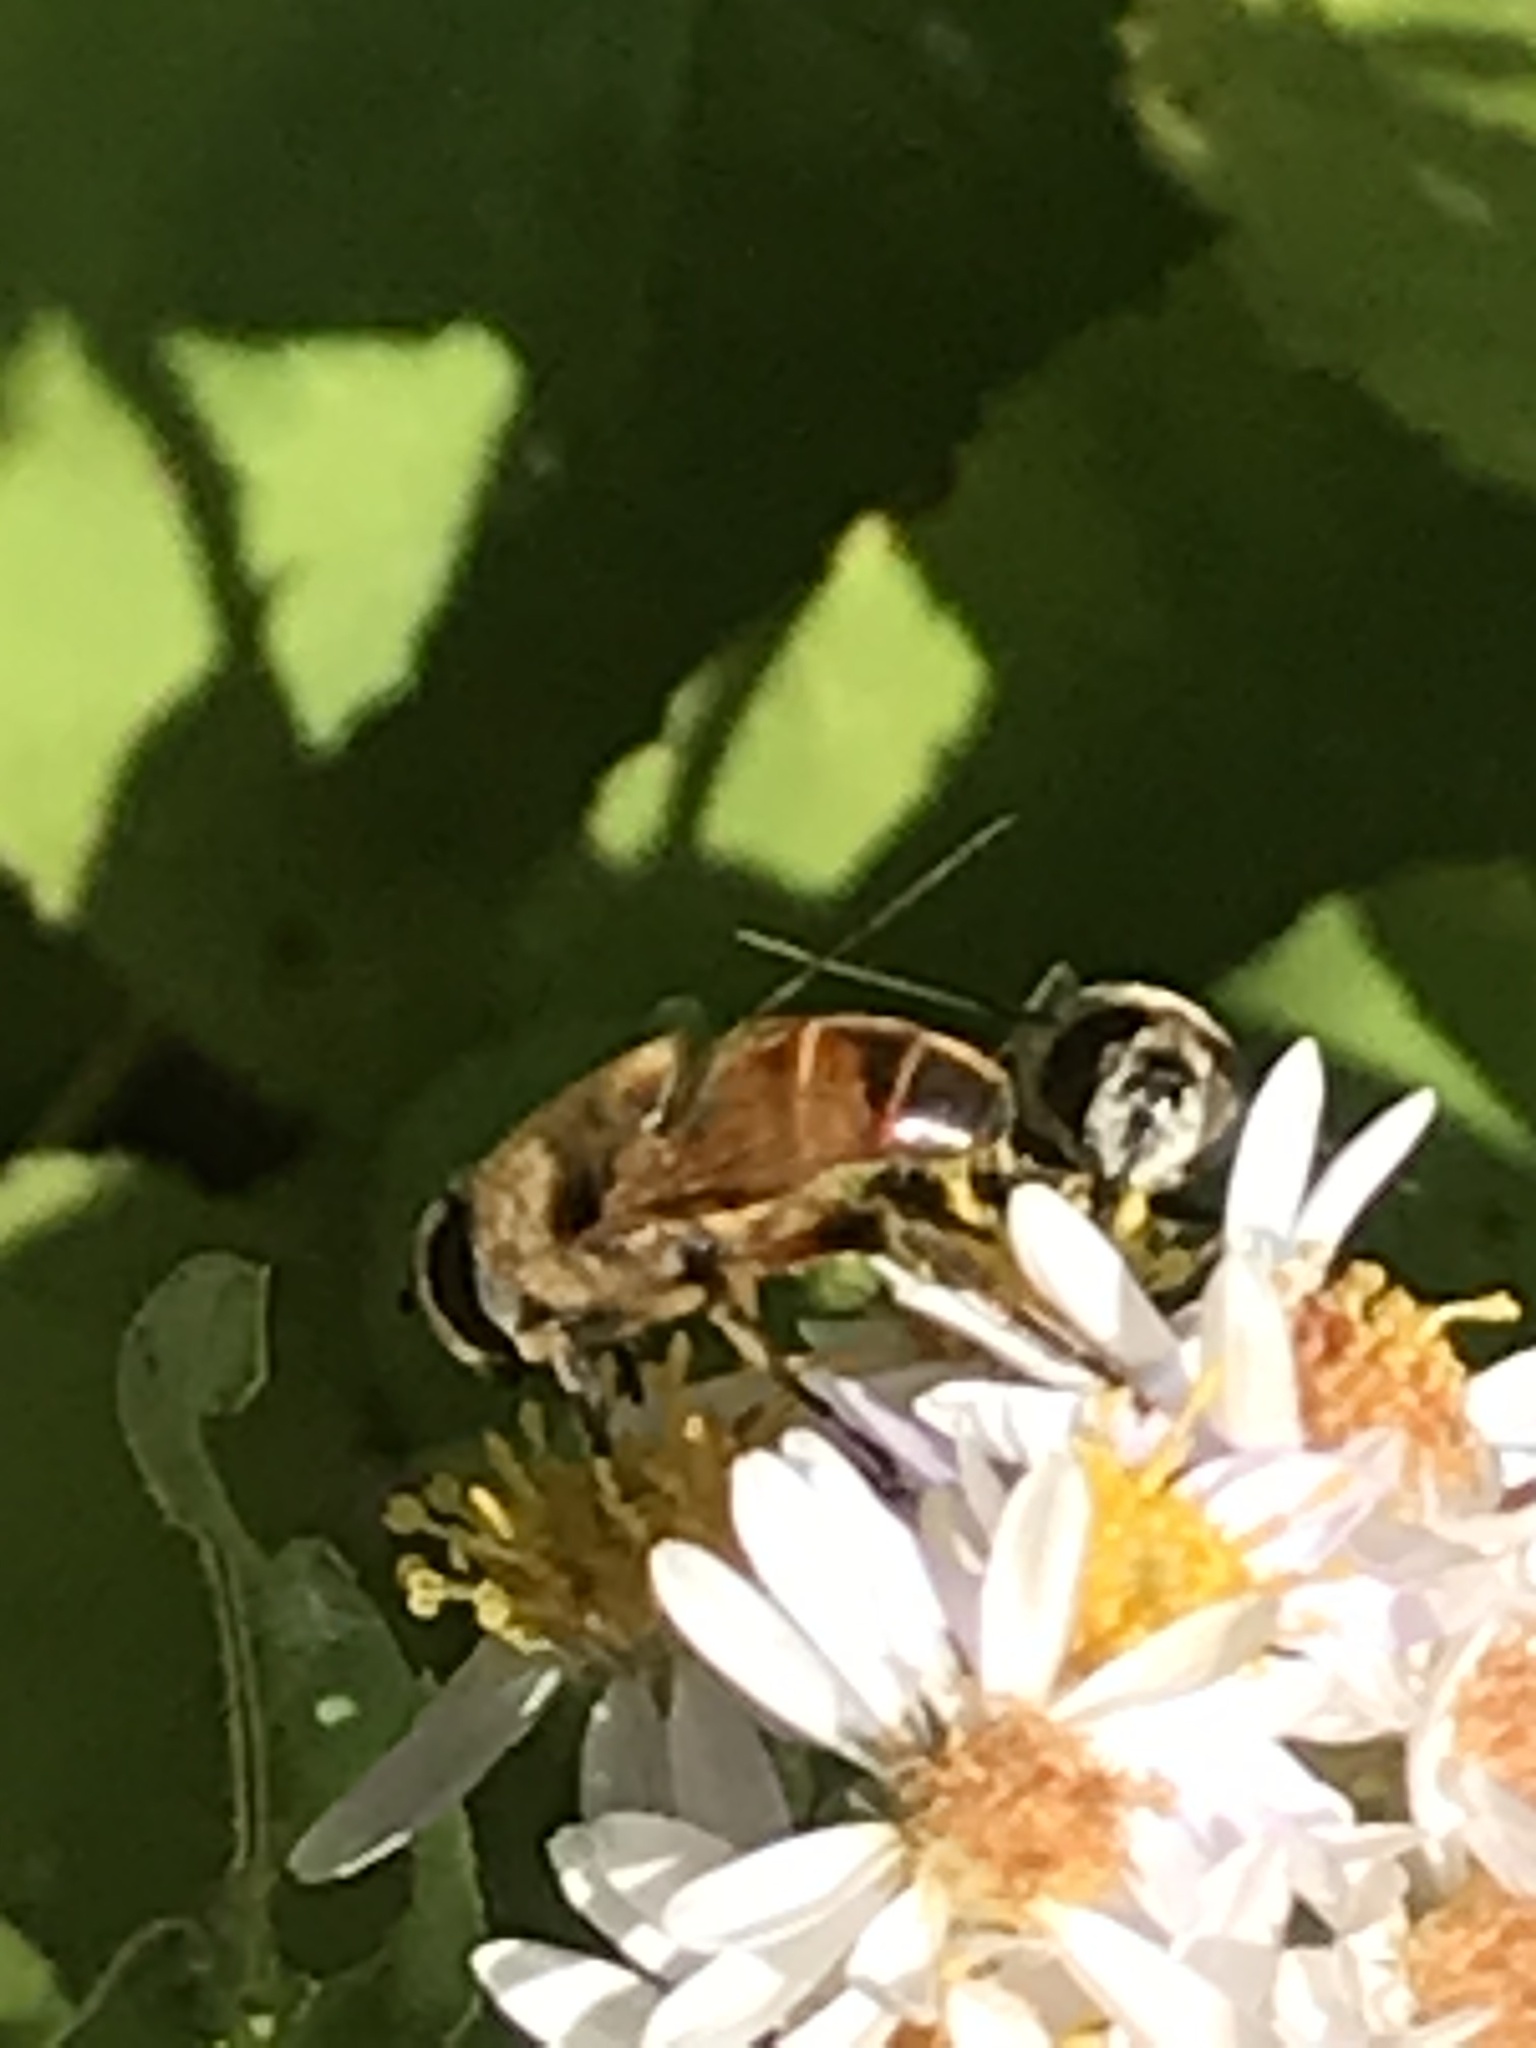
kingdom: Animalia
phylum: Arthropoda
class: Insecta
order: Diptera
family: Syrphidae
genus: Eristalis
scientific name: Eristalis tenax
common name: Drone fly
